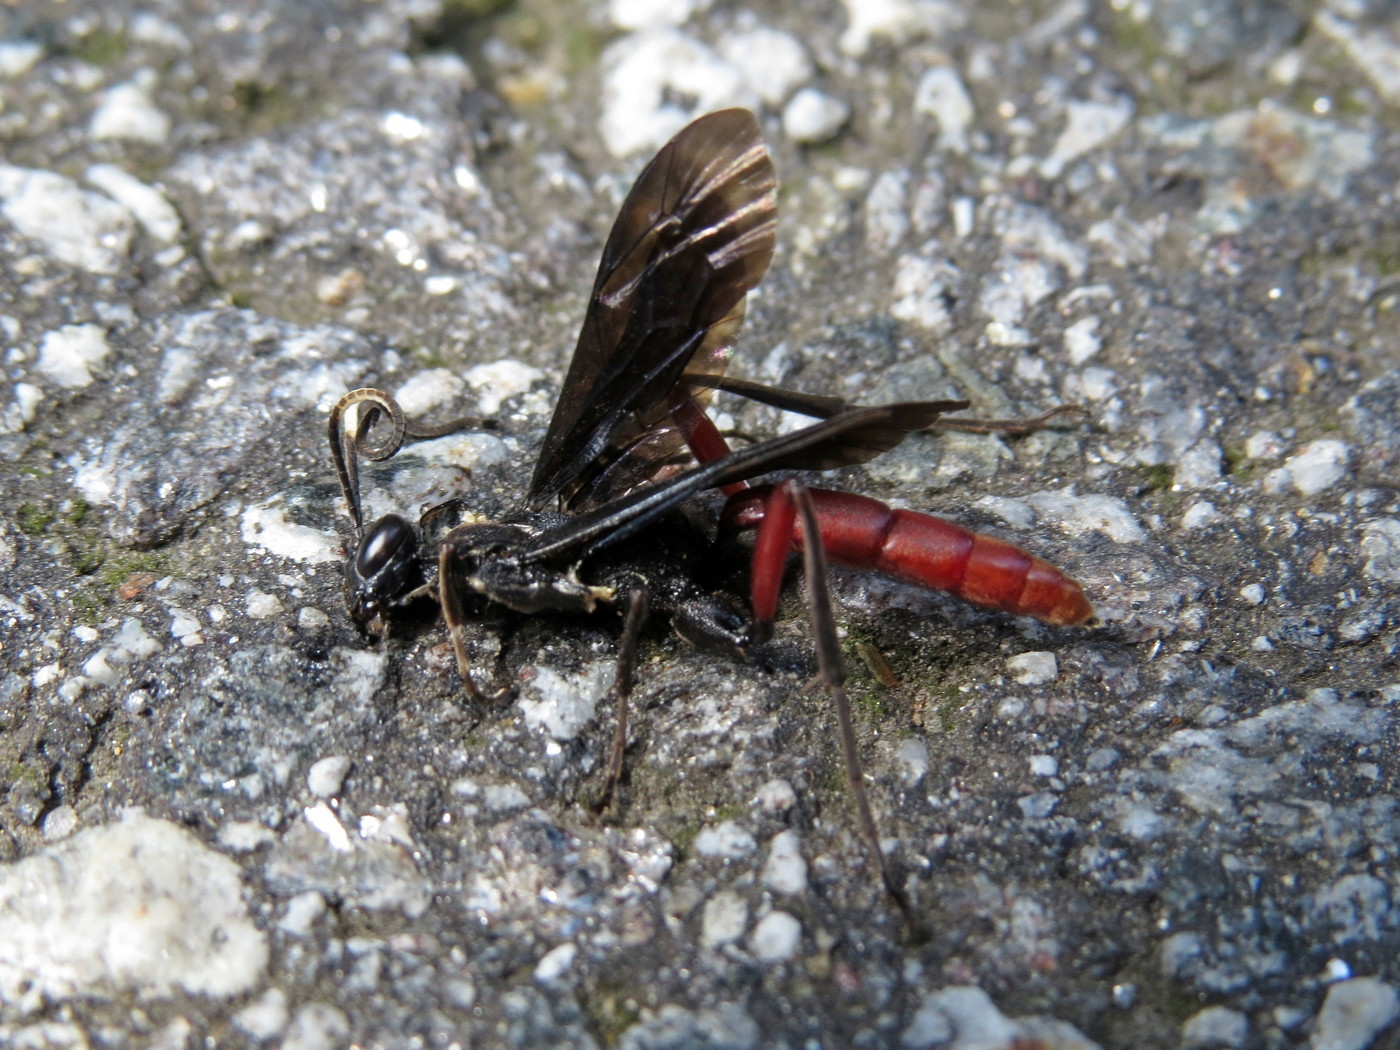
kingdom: Animalia
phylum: Arthropoda
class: Insecta
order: Hymenoptera
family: Ichneumonidae
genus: Limonethe
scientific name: Limonethe maurator
